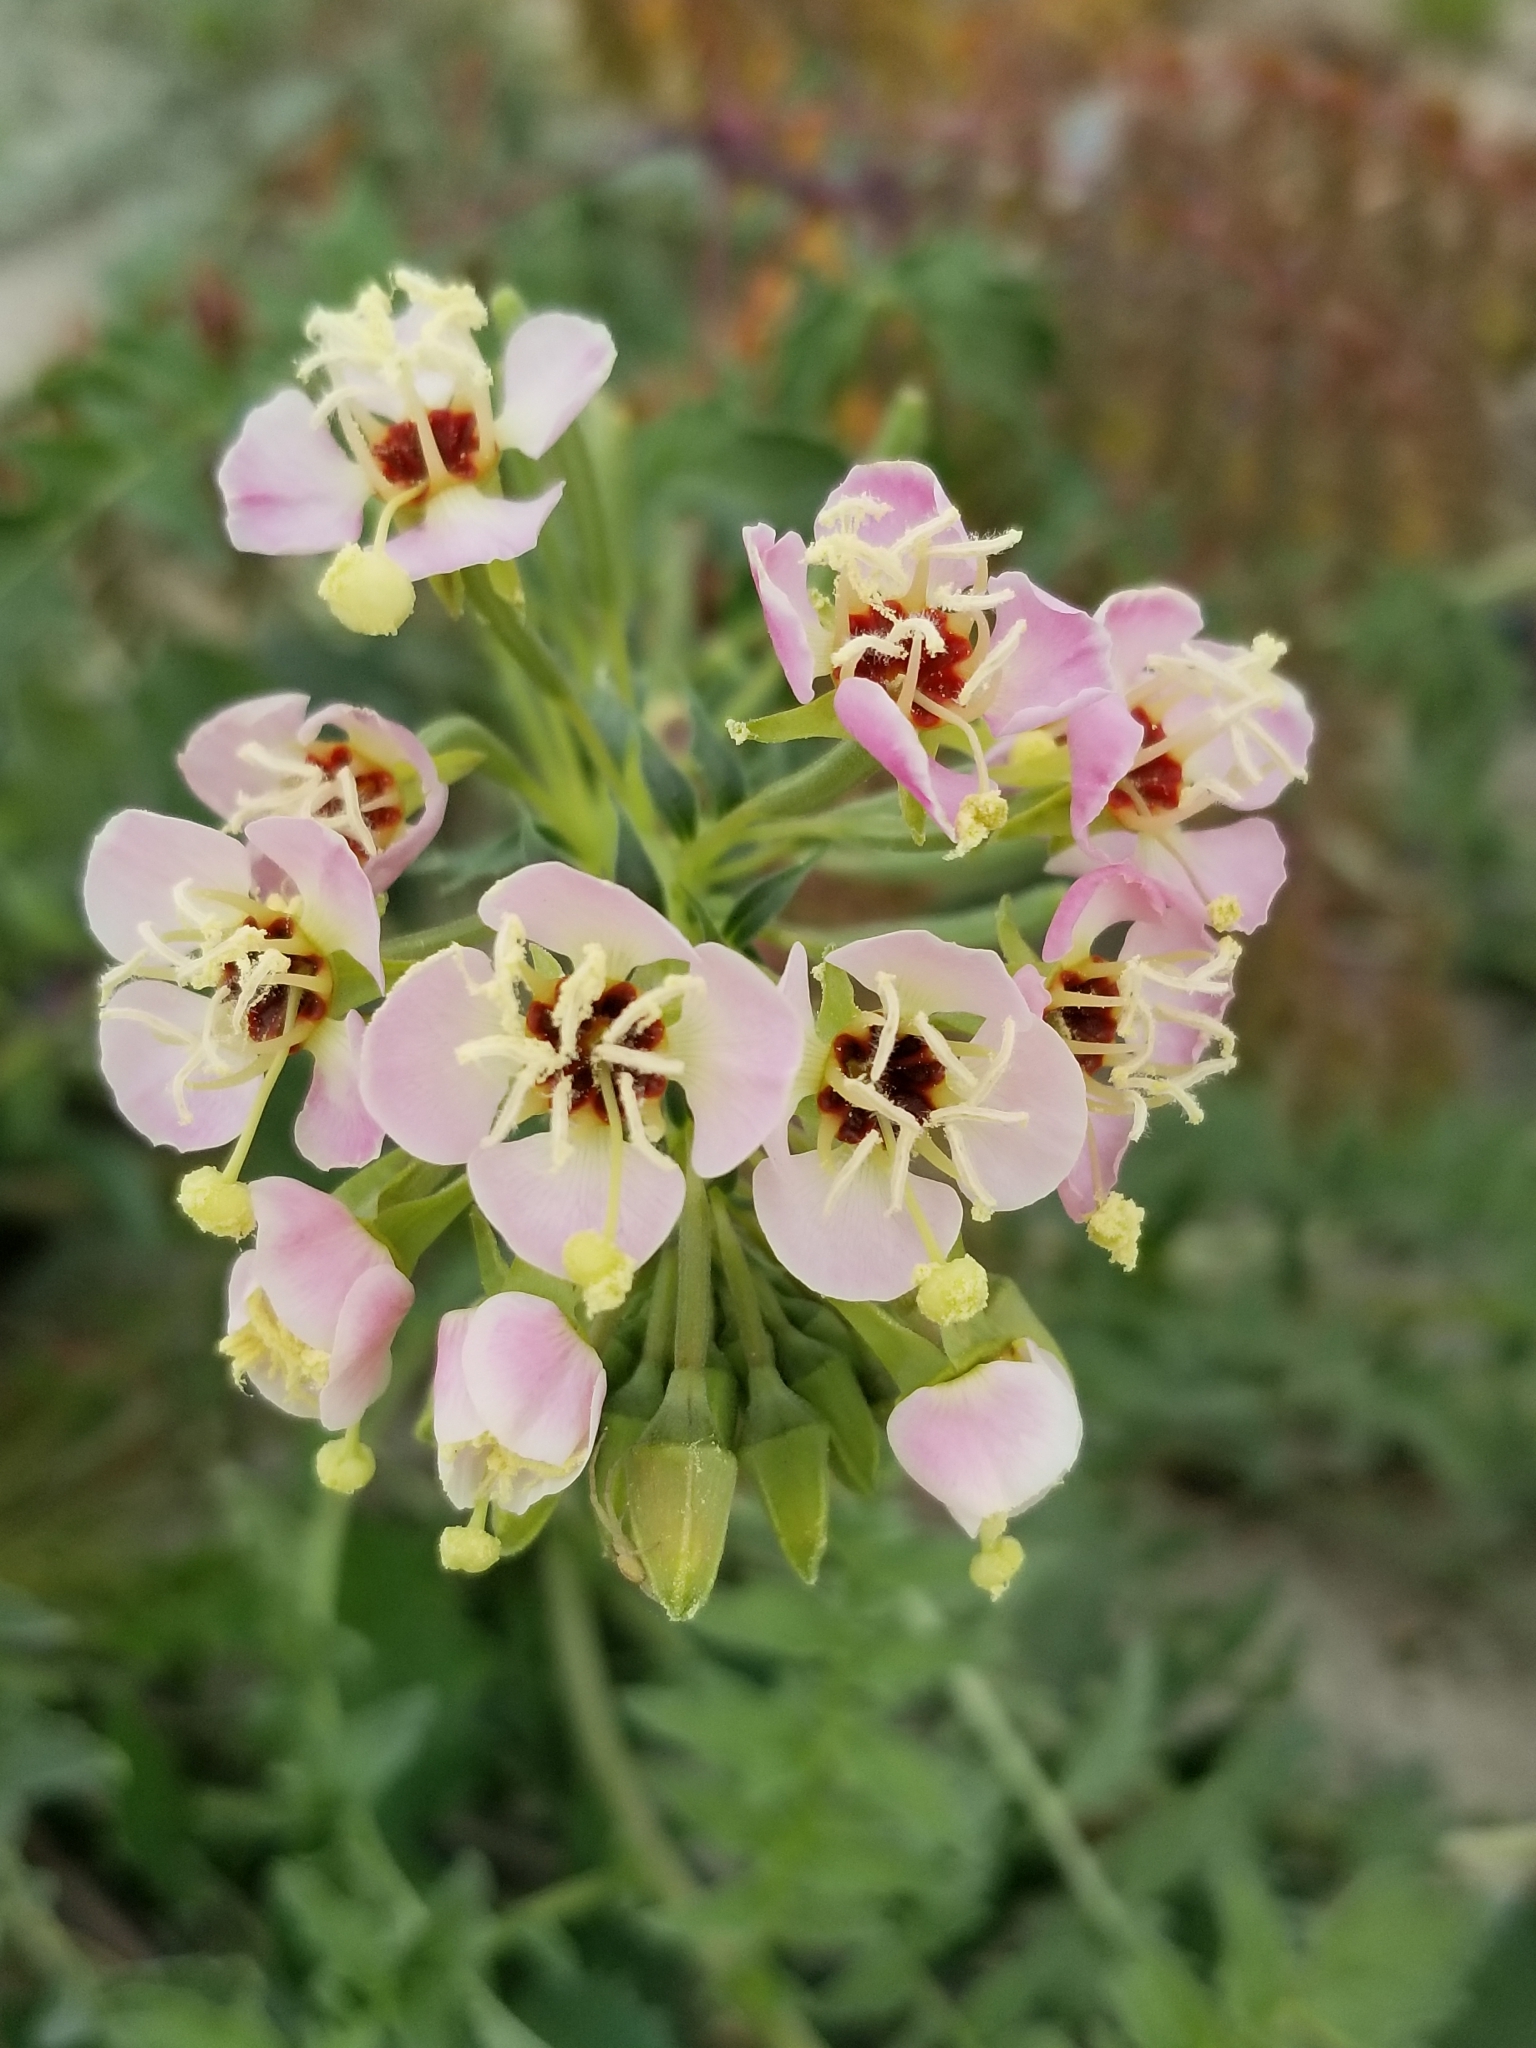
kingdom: Plantae
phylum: Tracheophyta
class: Magnoliopsida
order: Myrtales
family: Onagraceae
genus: Chylismia
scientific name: Chylismia claviformis
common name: Browneyes
